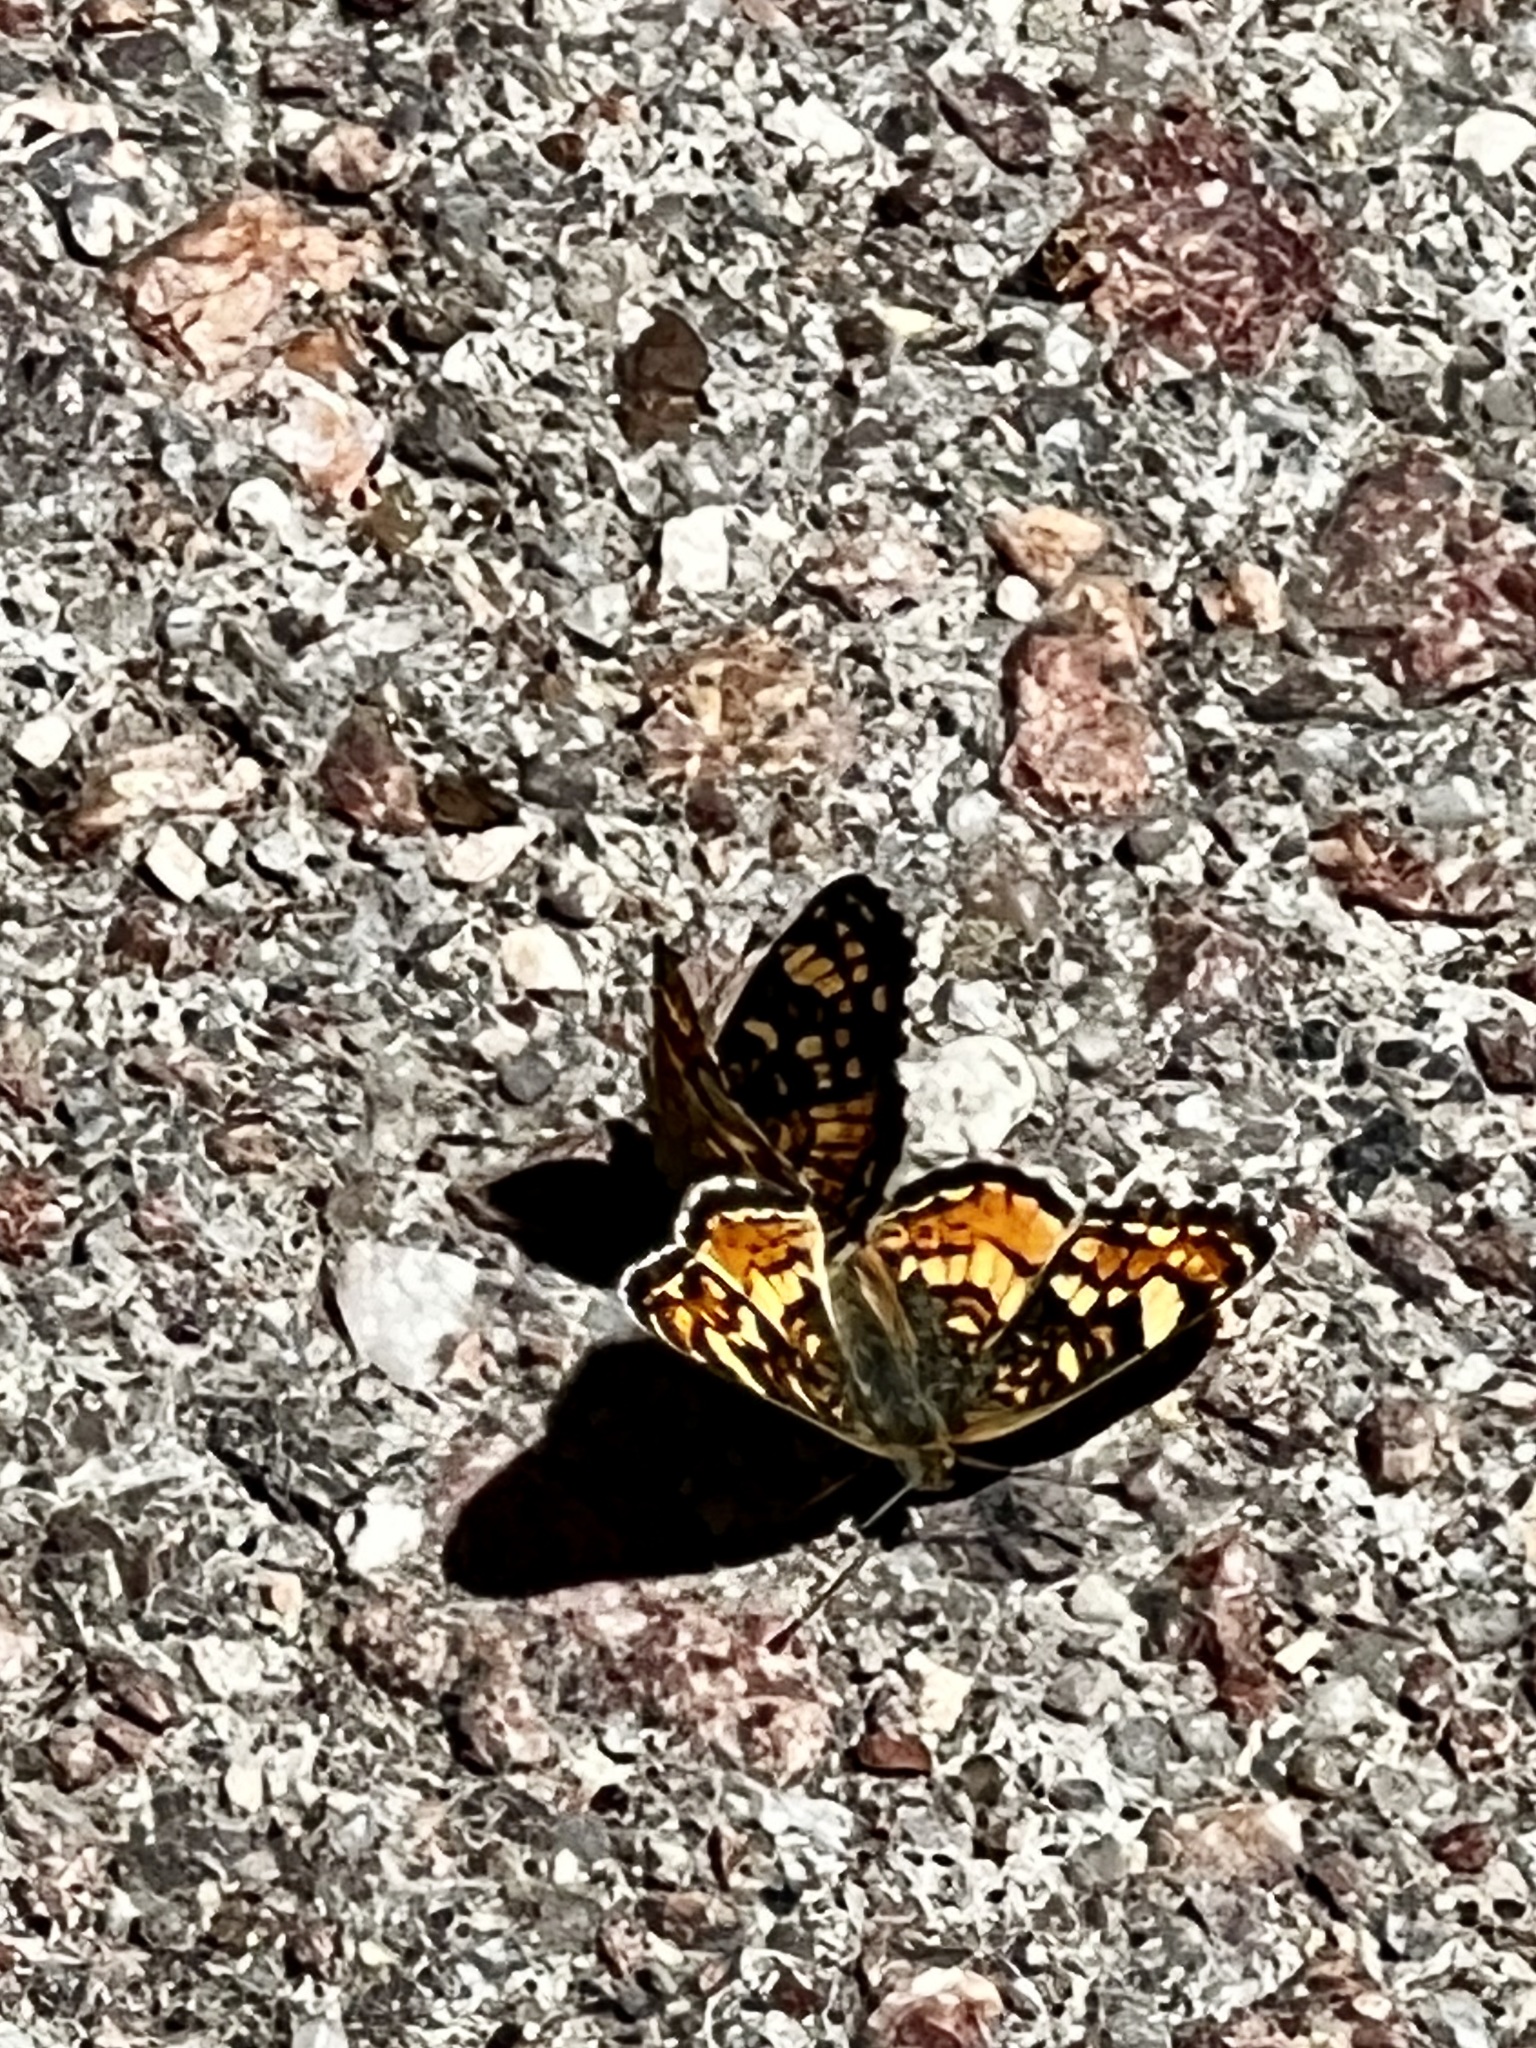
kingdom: Animalia
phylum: Arthropoda
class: Insecta
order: Lepidoptera
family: Nymphalidae
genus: Phyciodes
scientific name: Phyciodes tharos
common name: Pearl crescent
